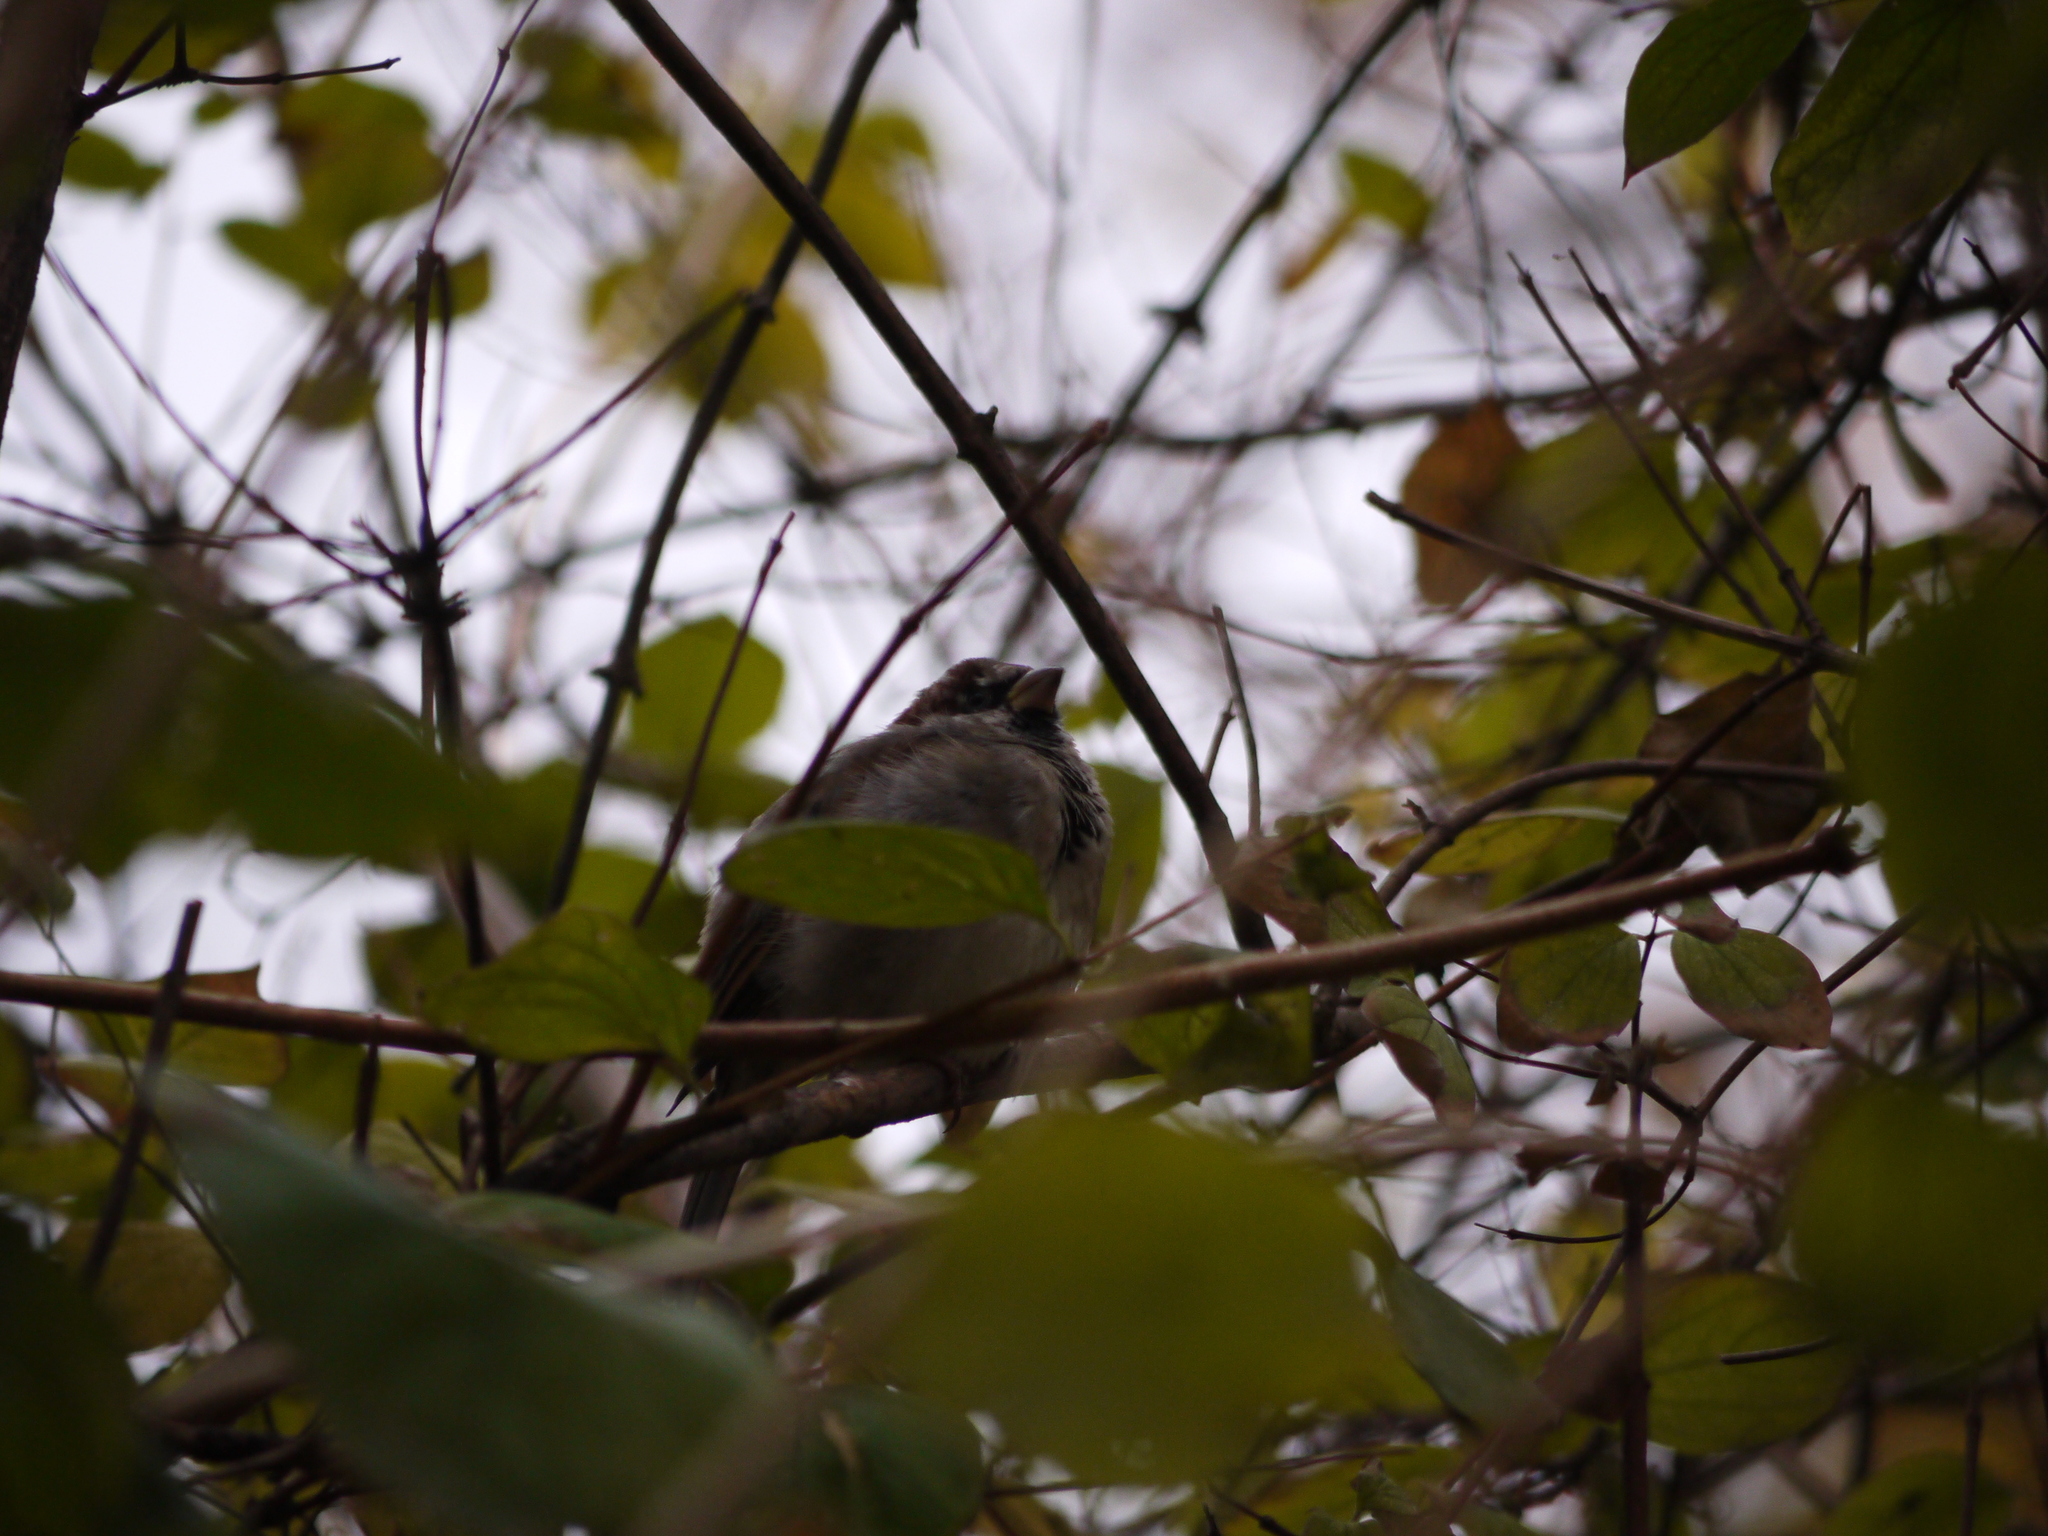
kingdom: Animalia
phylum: Chordata
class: Aves
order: Passeriformes
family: Passeridae
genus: Passer
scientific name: Passer domesticus
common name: House sparrow
